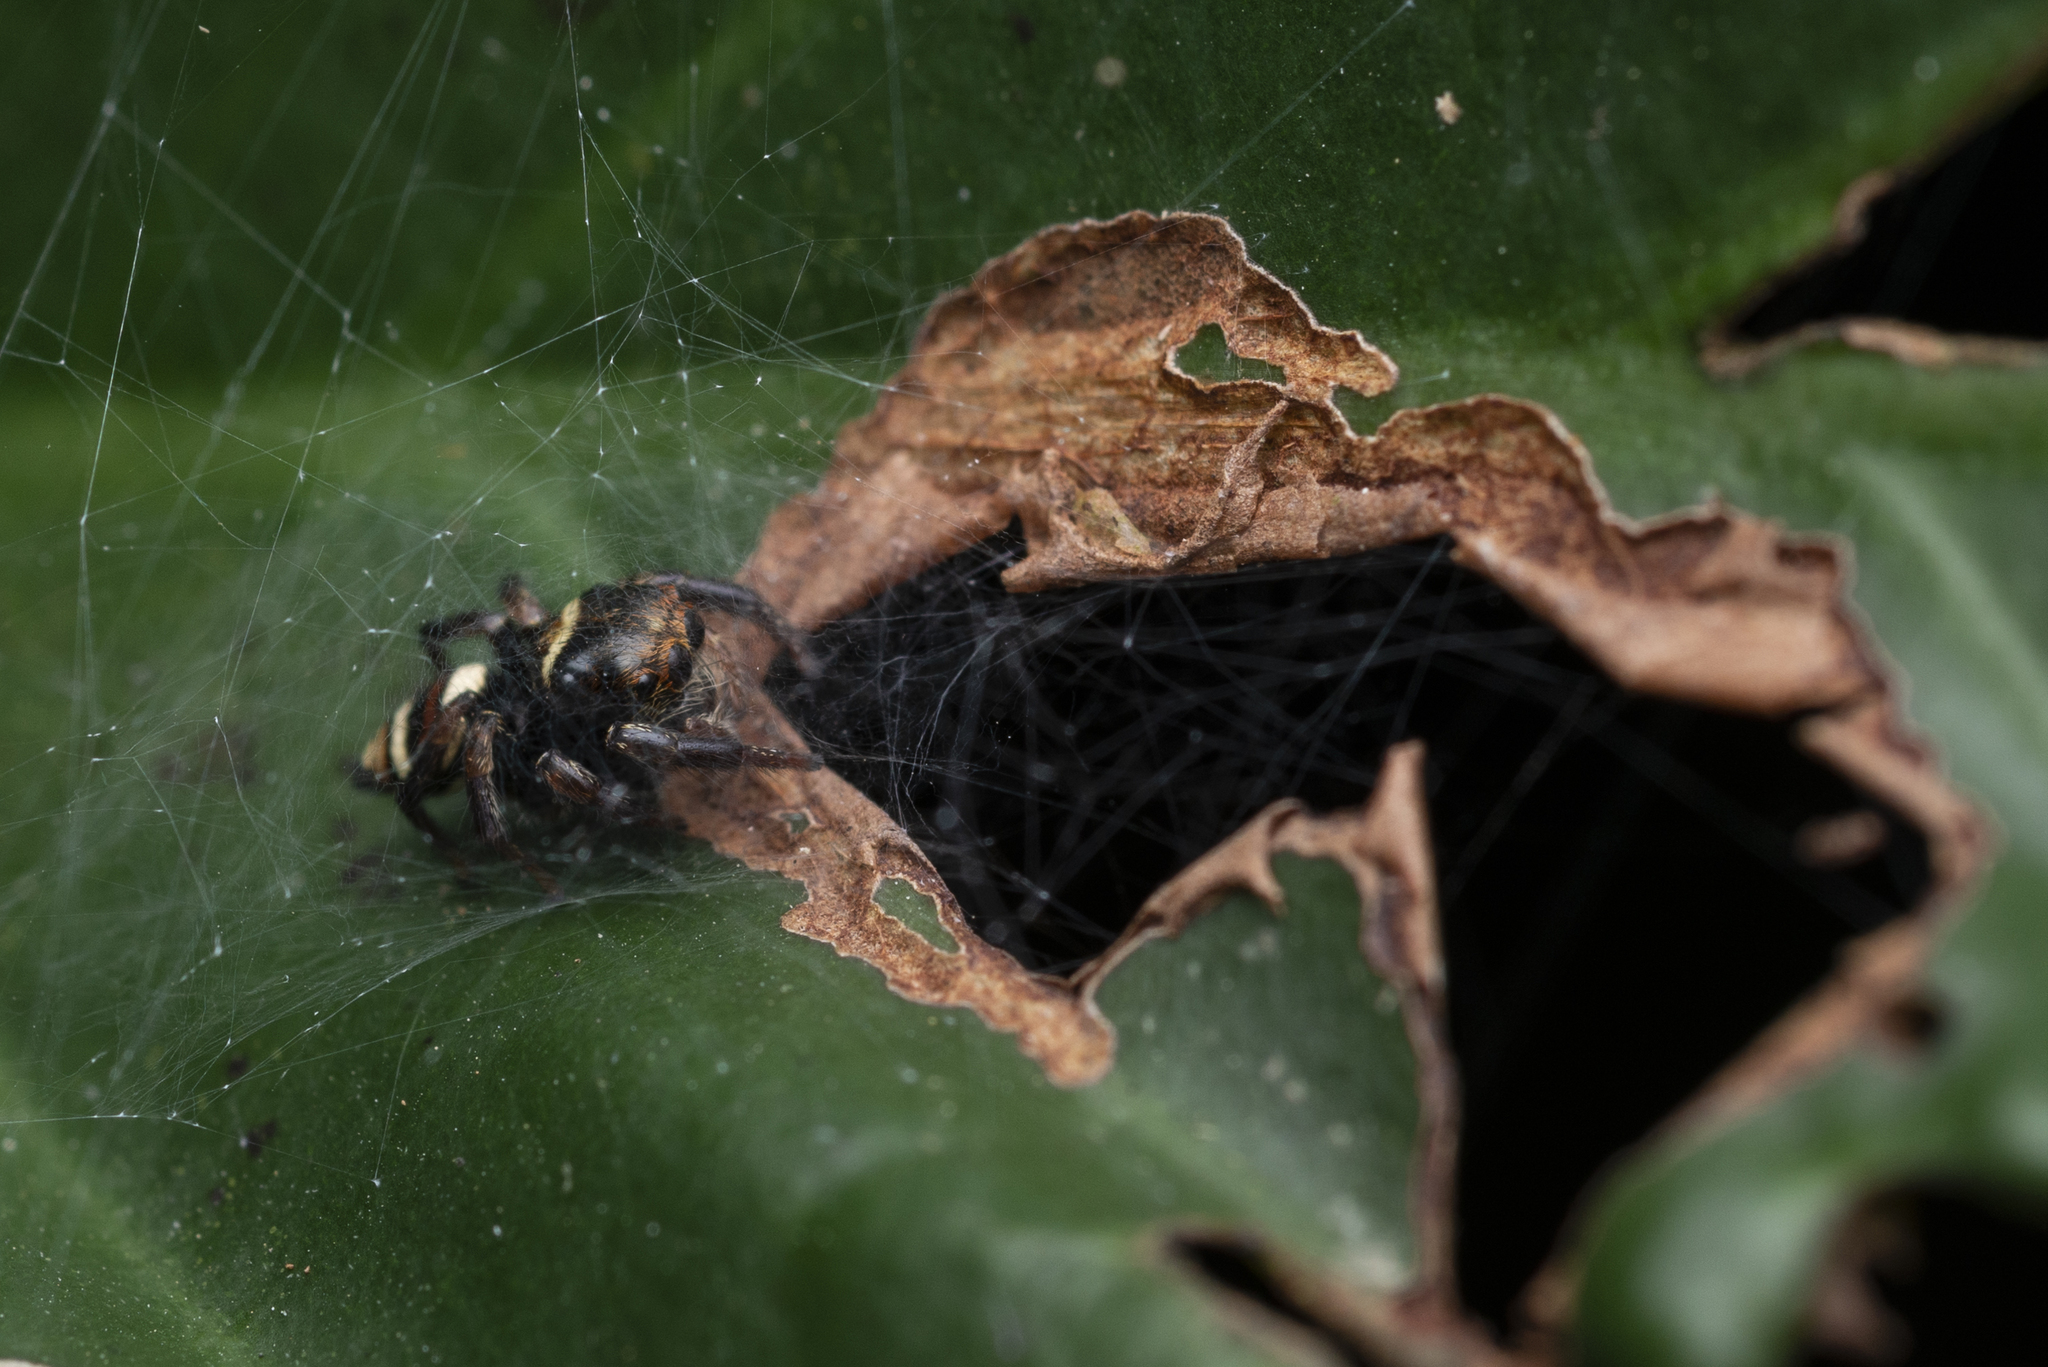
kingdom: Animalia
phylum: Arthropoda
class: Arachnida
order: Araneae
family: Salticidae
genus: Ptocasius
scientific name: Ptocasius strupifer
